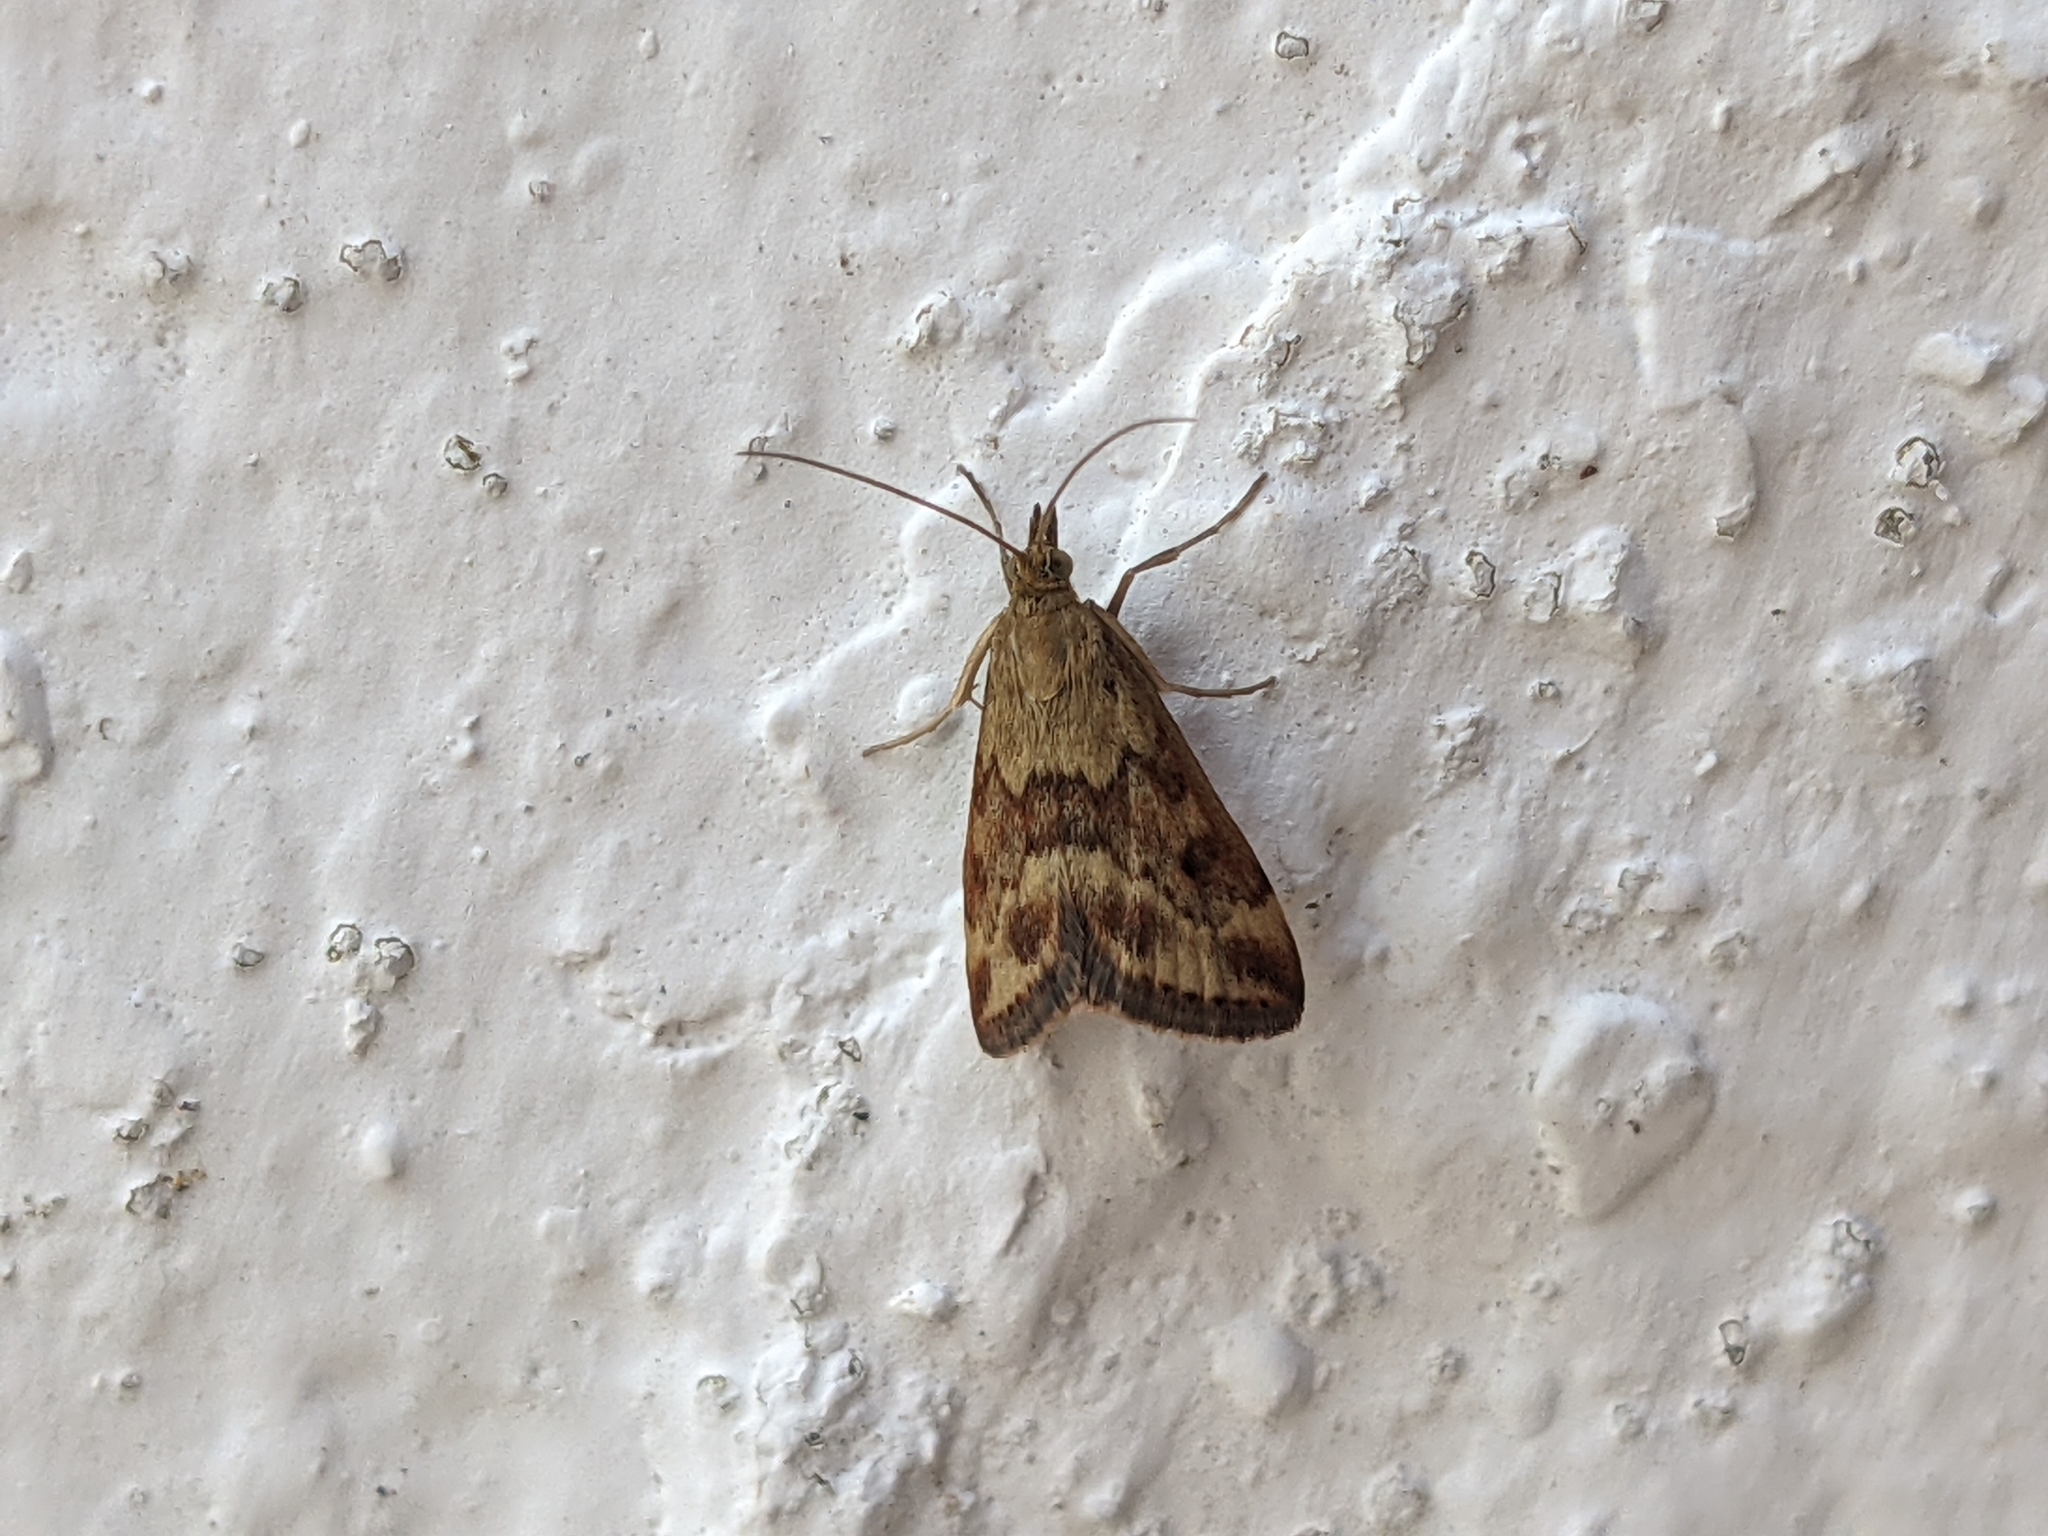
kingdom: Animalia
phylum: Arthropoda
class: Insecta
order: Lepidoptera
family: Crambidae
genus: Pyrausta
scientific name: Pyrausta despicata
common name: Straw-barred pearl
